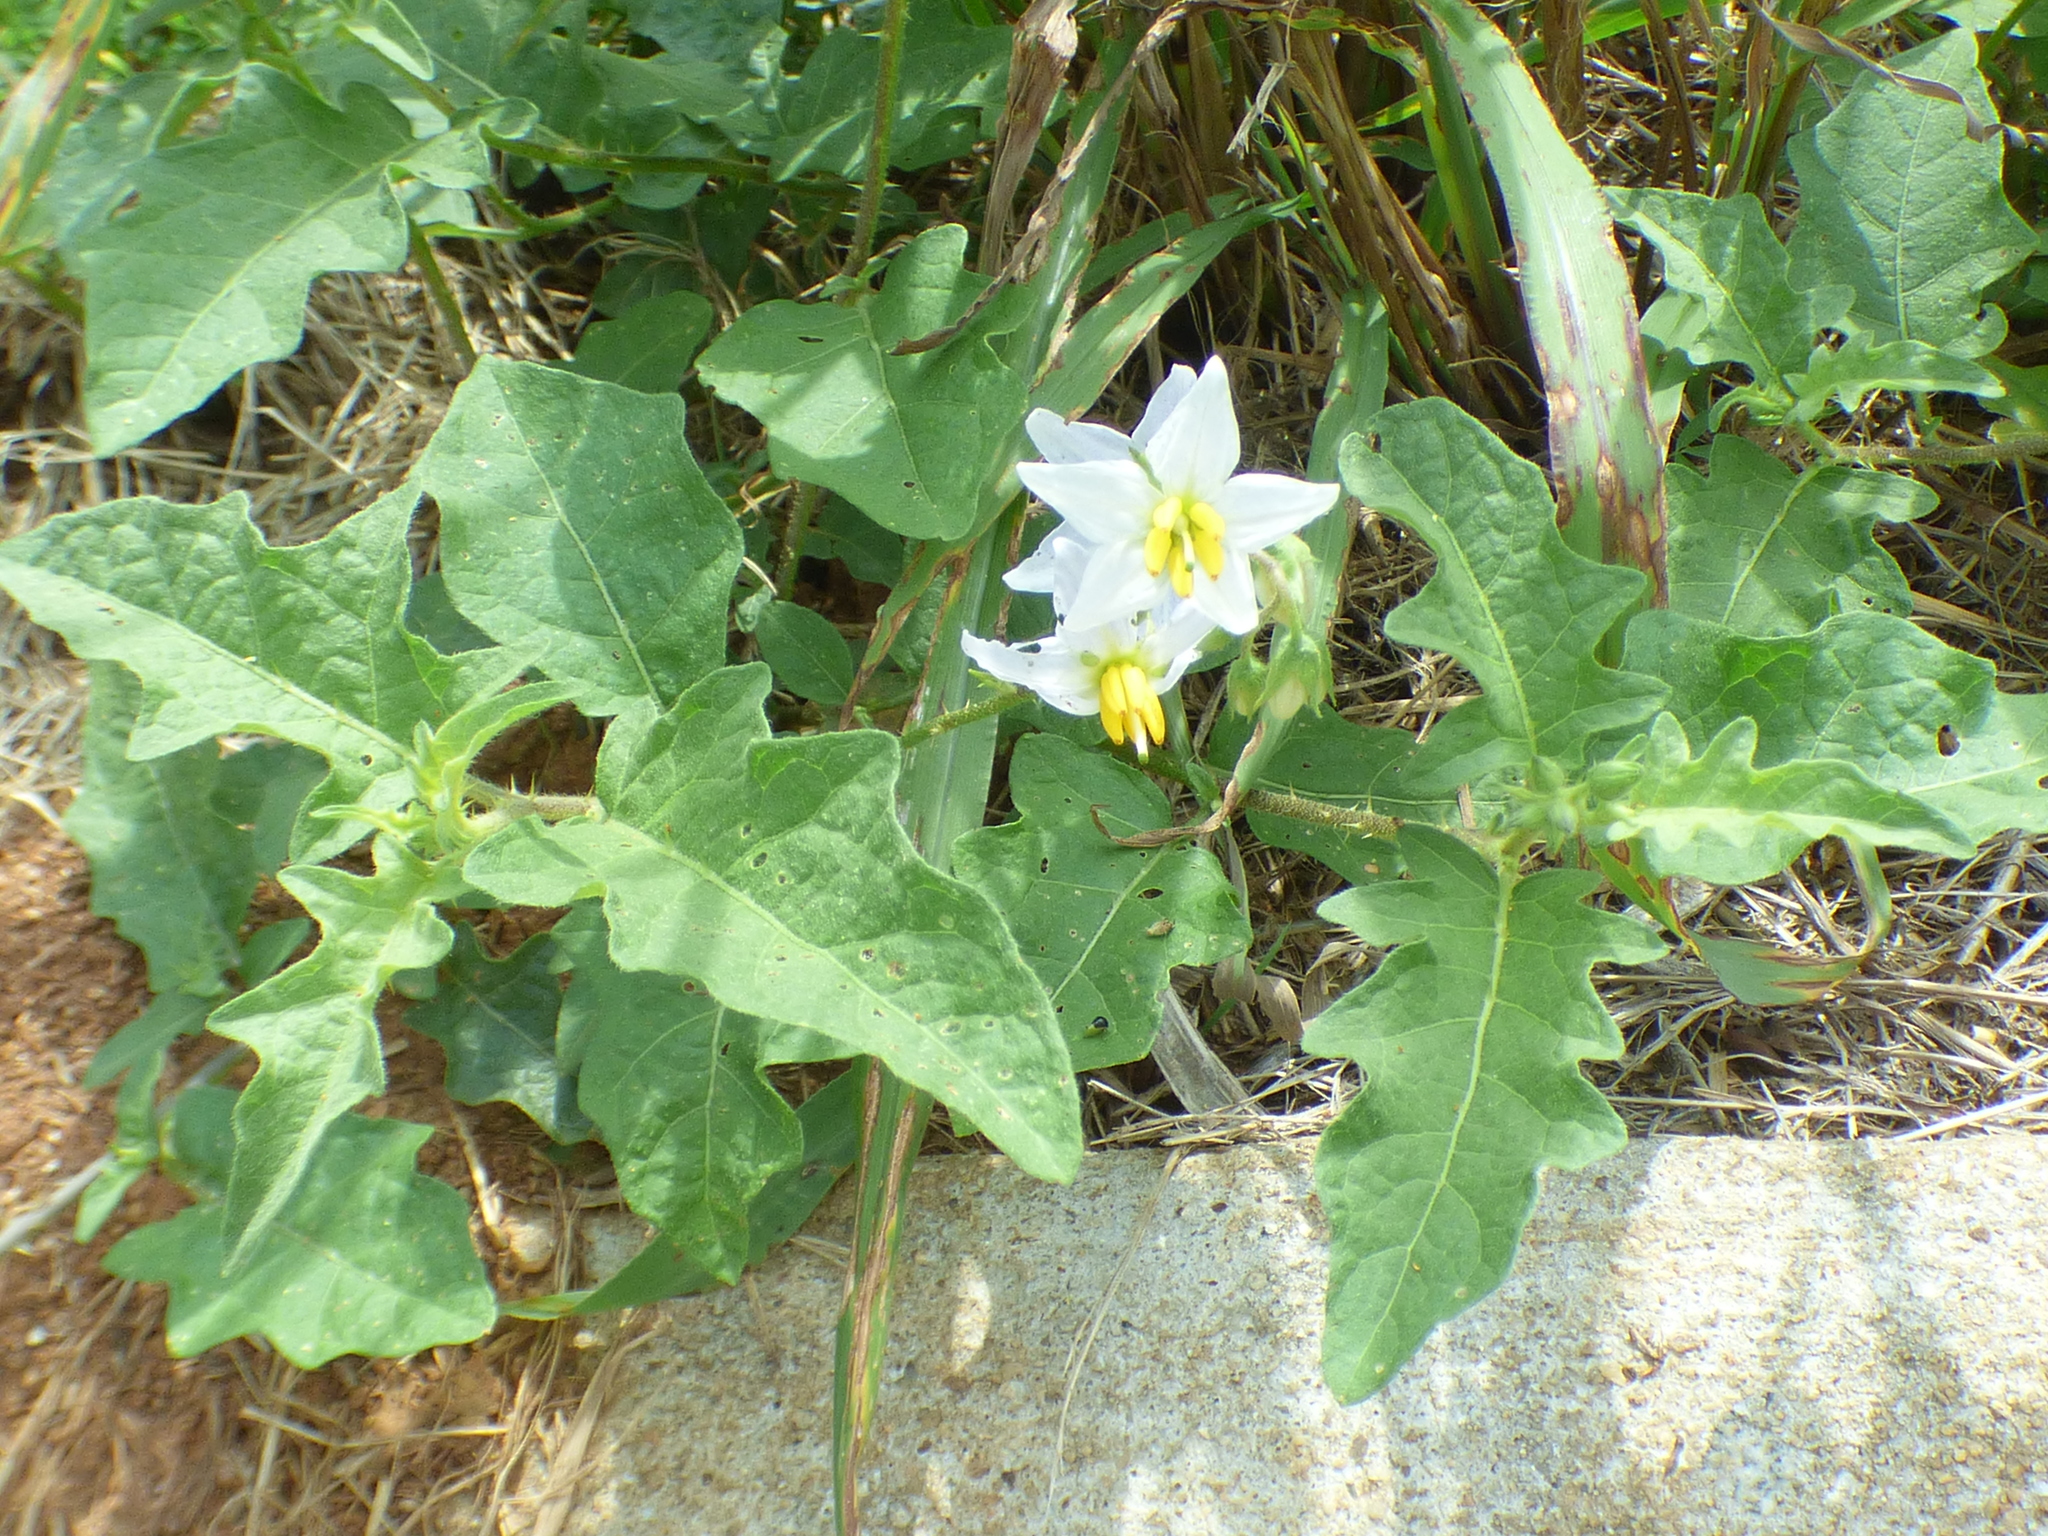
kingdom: Plantae
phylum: Tracheophyta
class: Magnoliopsida
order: Solanales
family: Solanaceae
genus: Solanum
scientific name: Solanum carolinense
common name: Horse-nettle
